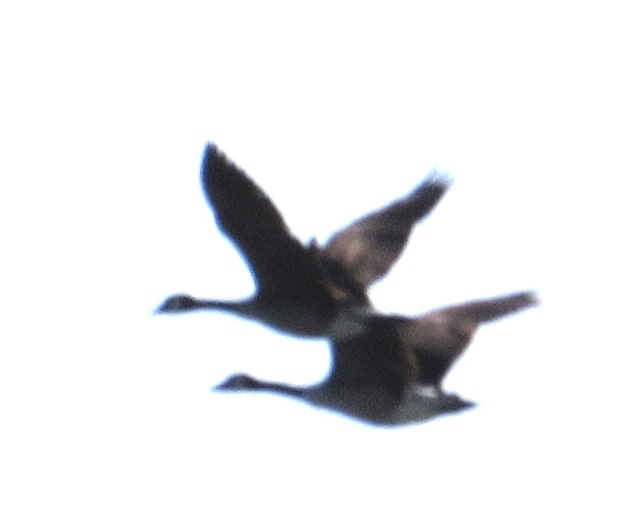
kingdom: Animalia
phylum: Chordata
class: Aves
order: Anseriformes
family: Anatidae
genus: Branta
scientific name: Branta canadensis
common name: Canada goose
